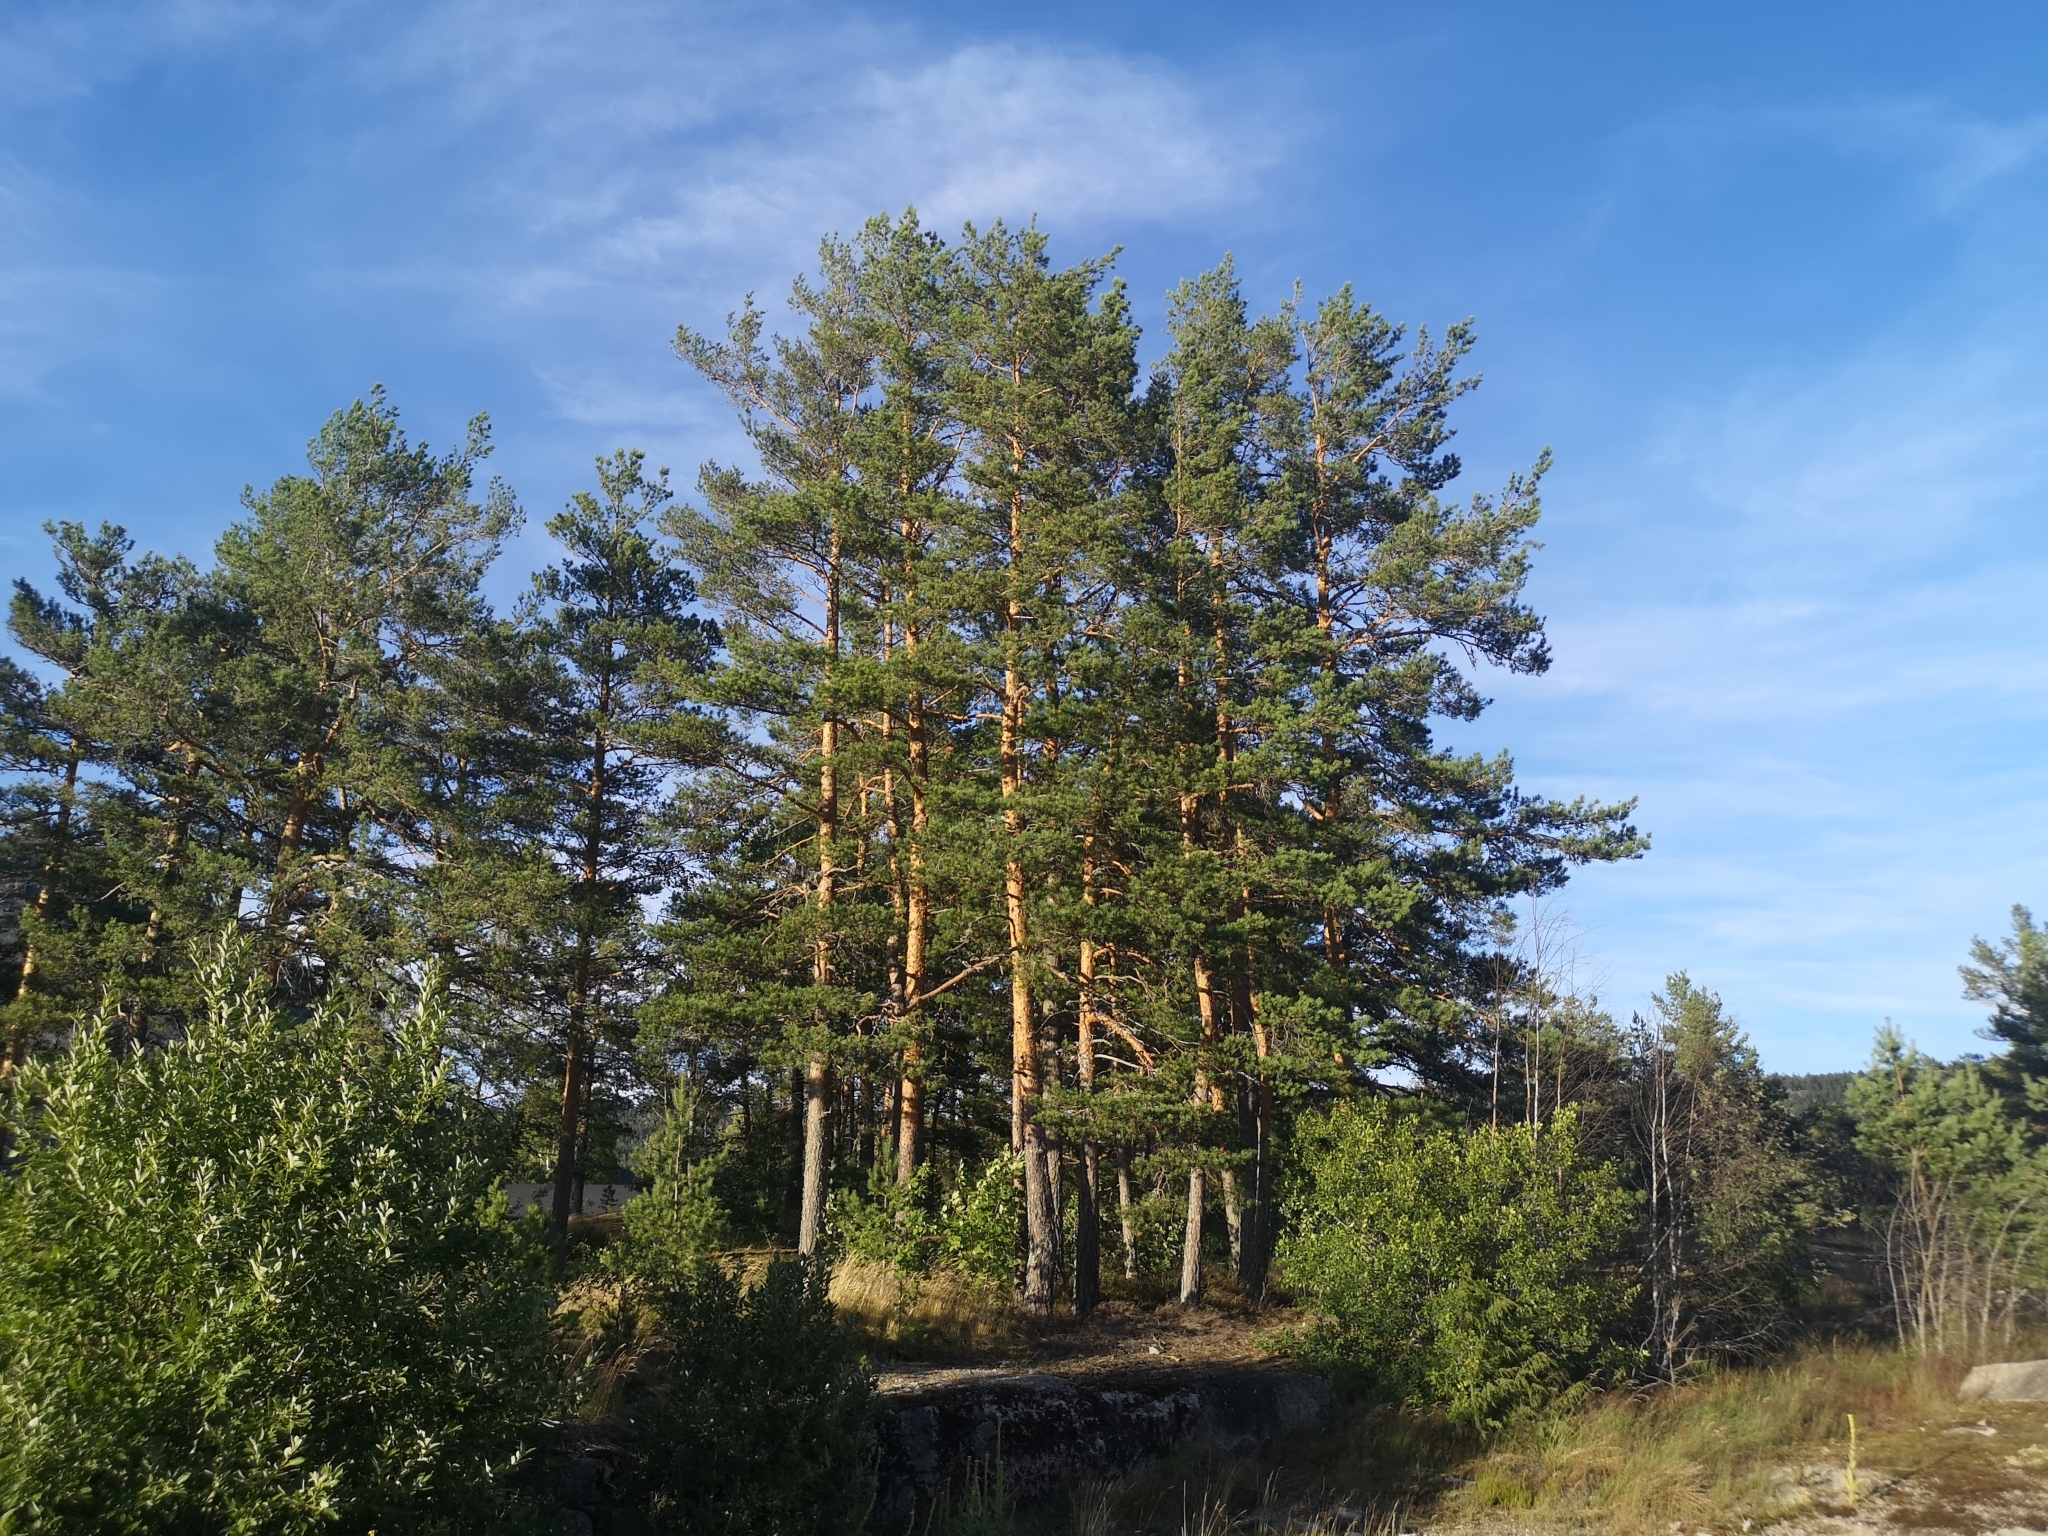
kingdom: Plantae
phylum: Tracheophyta
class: Pinopsida
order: Pinales
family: Pinaceae
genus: Pinus
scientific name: Pinus sylvestris
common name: Scots pine
